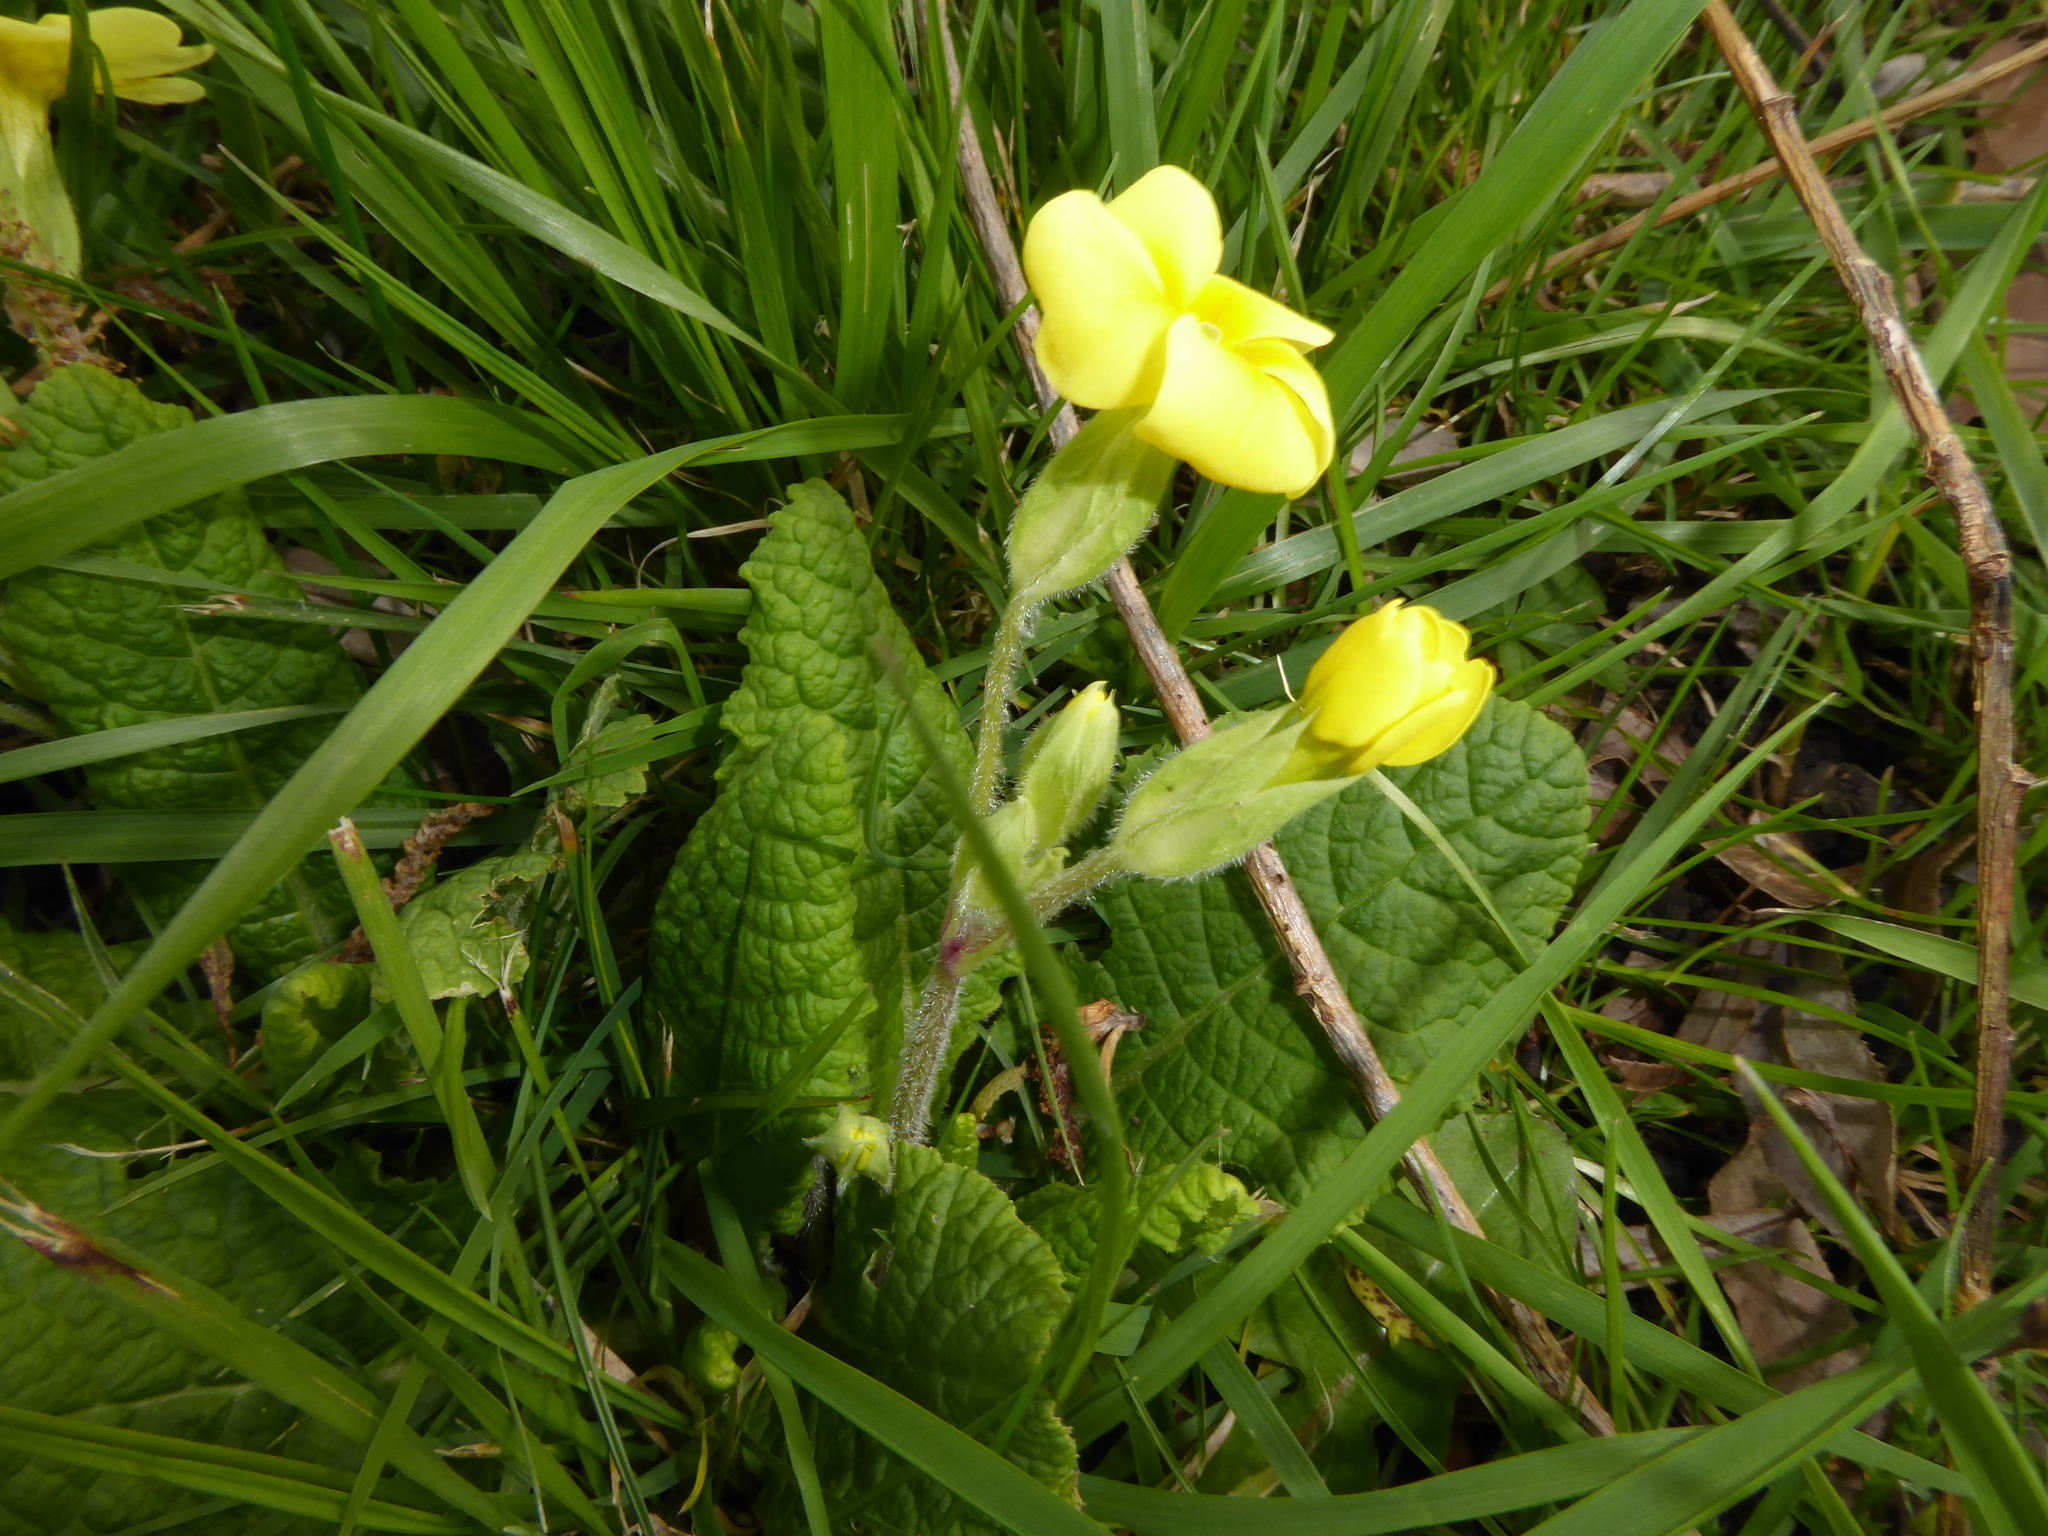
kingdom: Plantae
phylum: Tracheophyta
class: Magnoliopsida
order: Ericales
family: Primulaceae
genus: Primula
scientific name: Primula polyantha
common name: False oxlip
